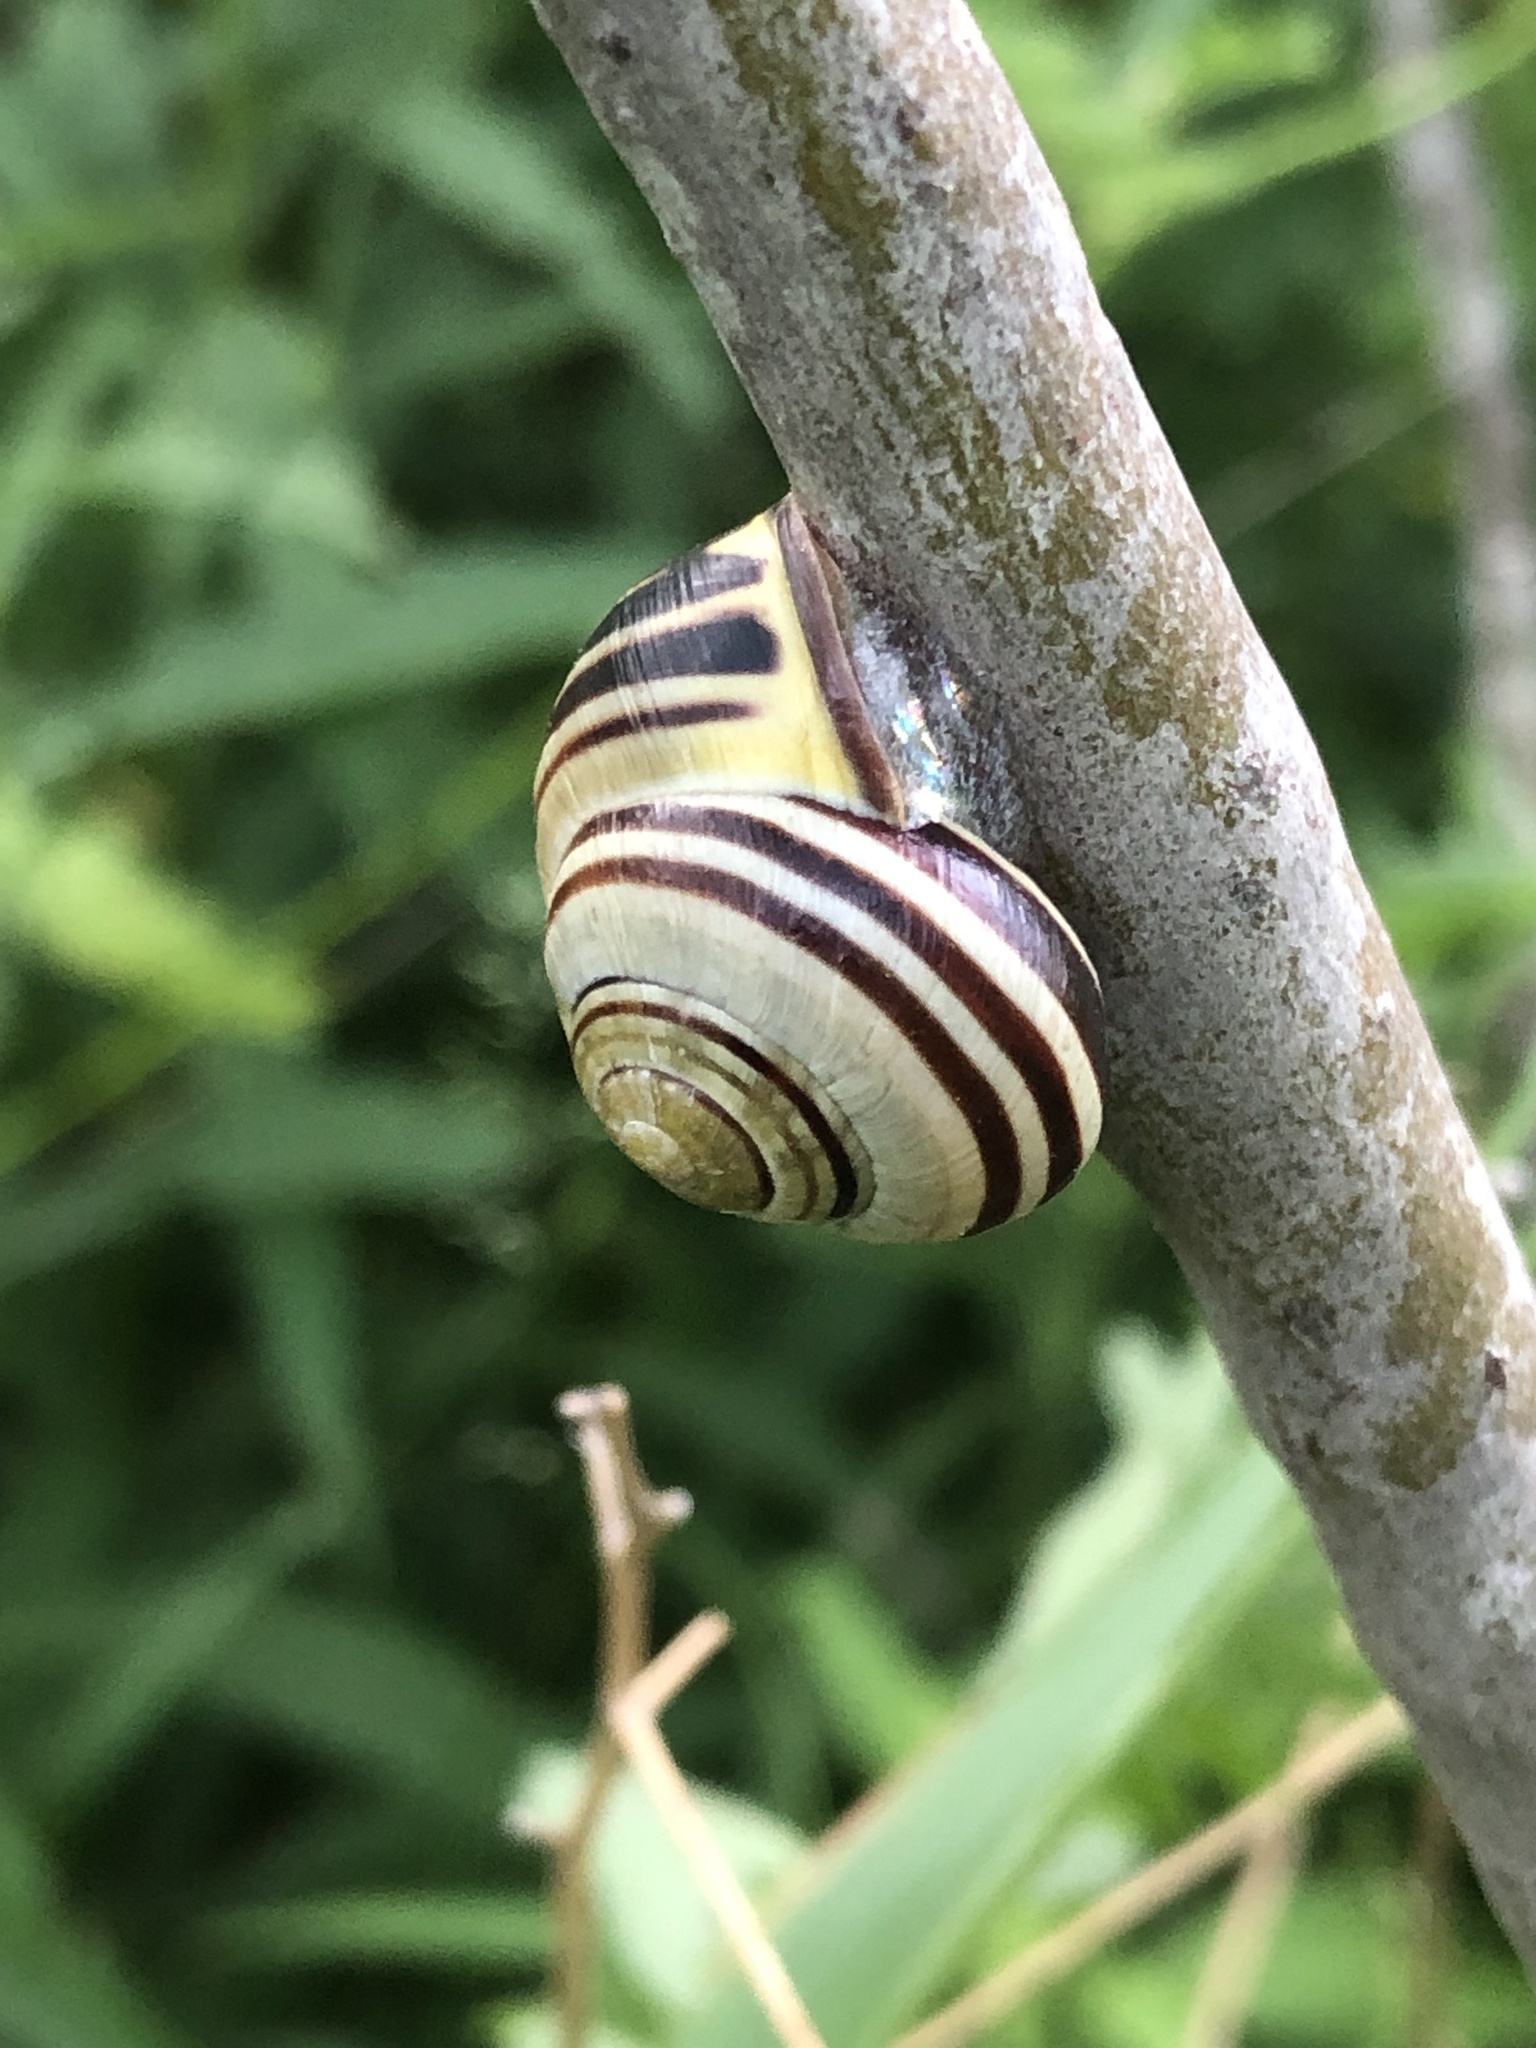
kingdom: Animalia
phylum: Mollusca
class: Gastropoda
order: Stylommatophora
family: Helicidae
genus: Cepaea
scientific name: Cepaea nemoralis
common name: Grovesnail
